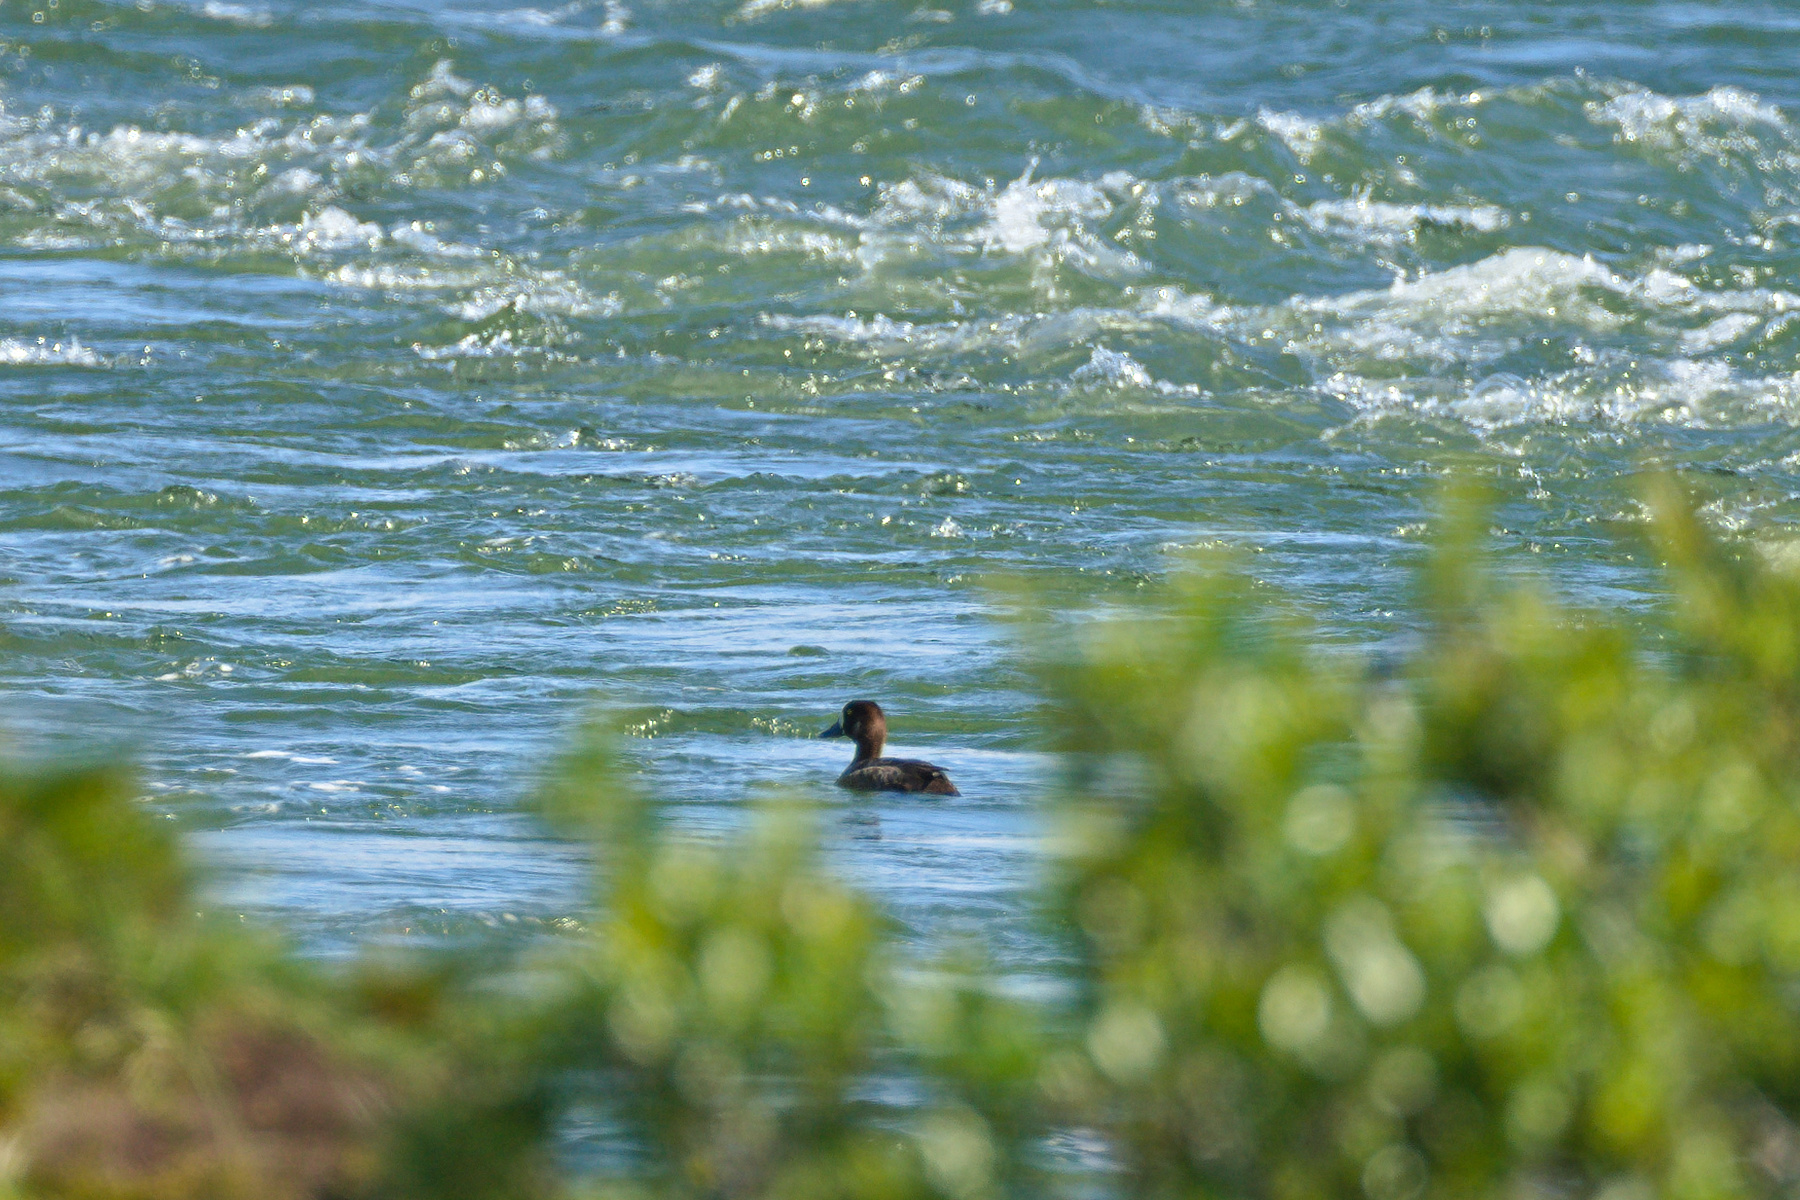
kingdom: Animalia
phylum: Chordata
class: Aves
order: Anseriformes
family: Anatidae
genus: Aythya
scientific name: Aythya marila
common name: Greater scaup
